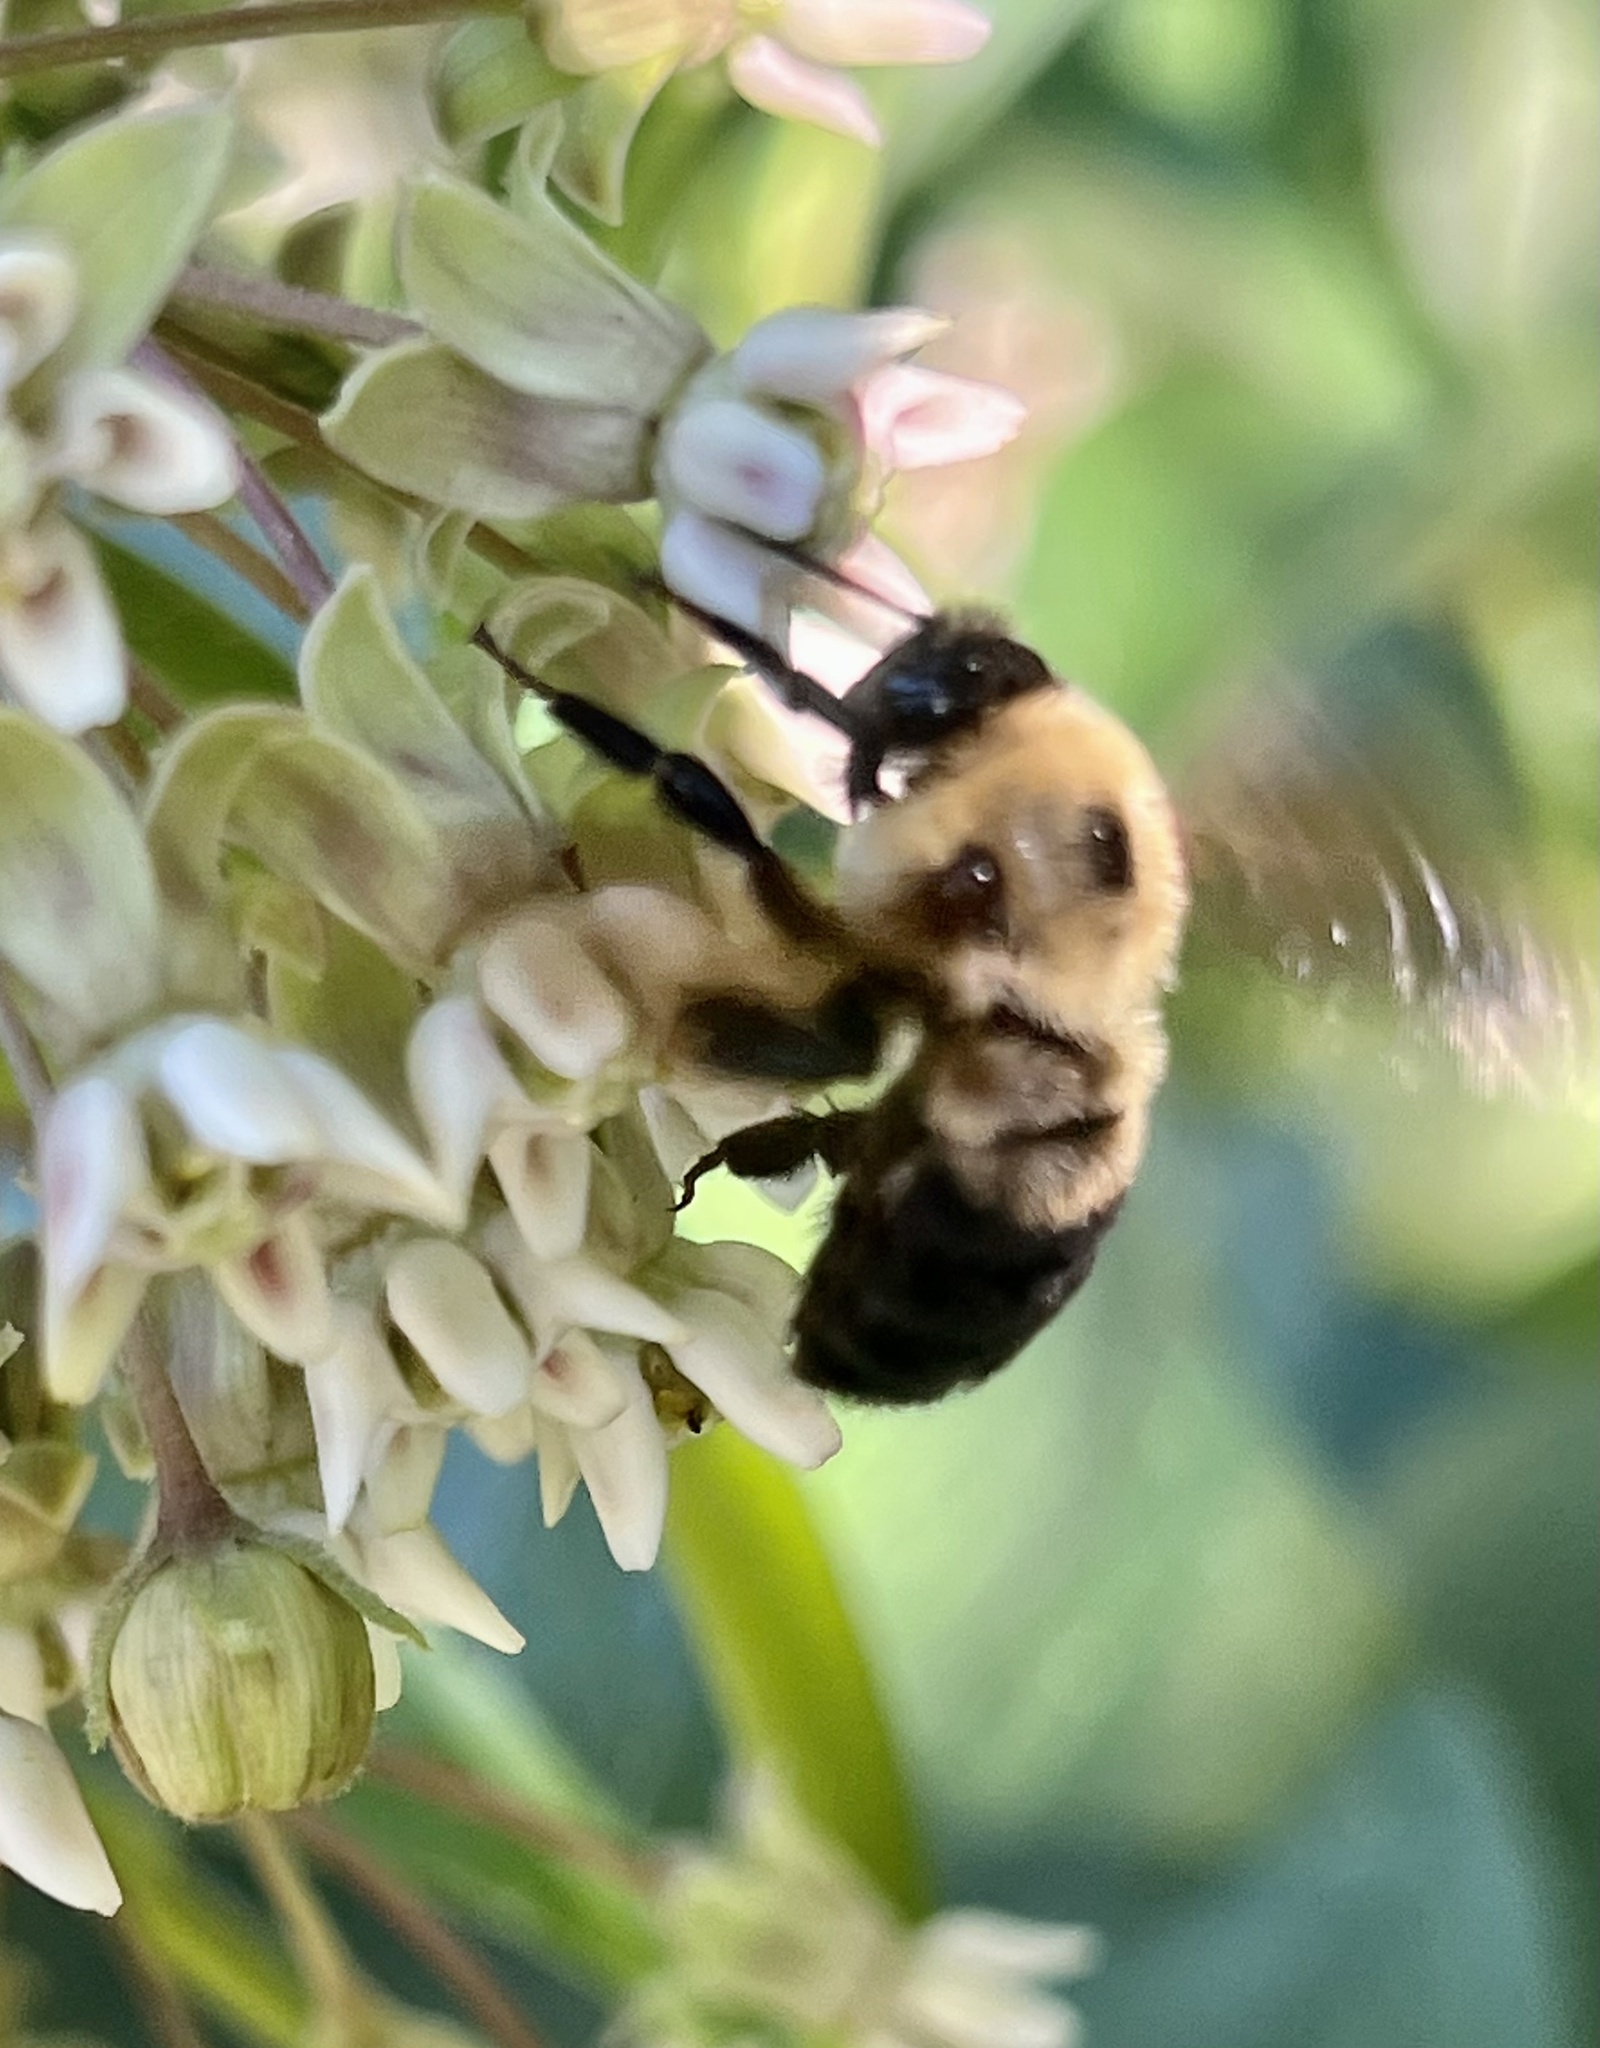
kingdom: Animalia
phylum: Arthropoda
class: Insecta
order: Hymenoptera
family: Apidae
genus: Bombus
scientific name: Bombus griseocollis
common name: Brown-belted bumble bee
